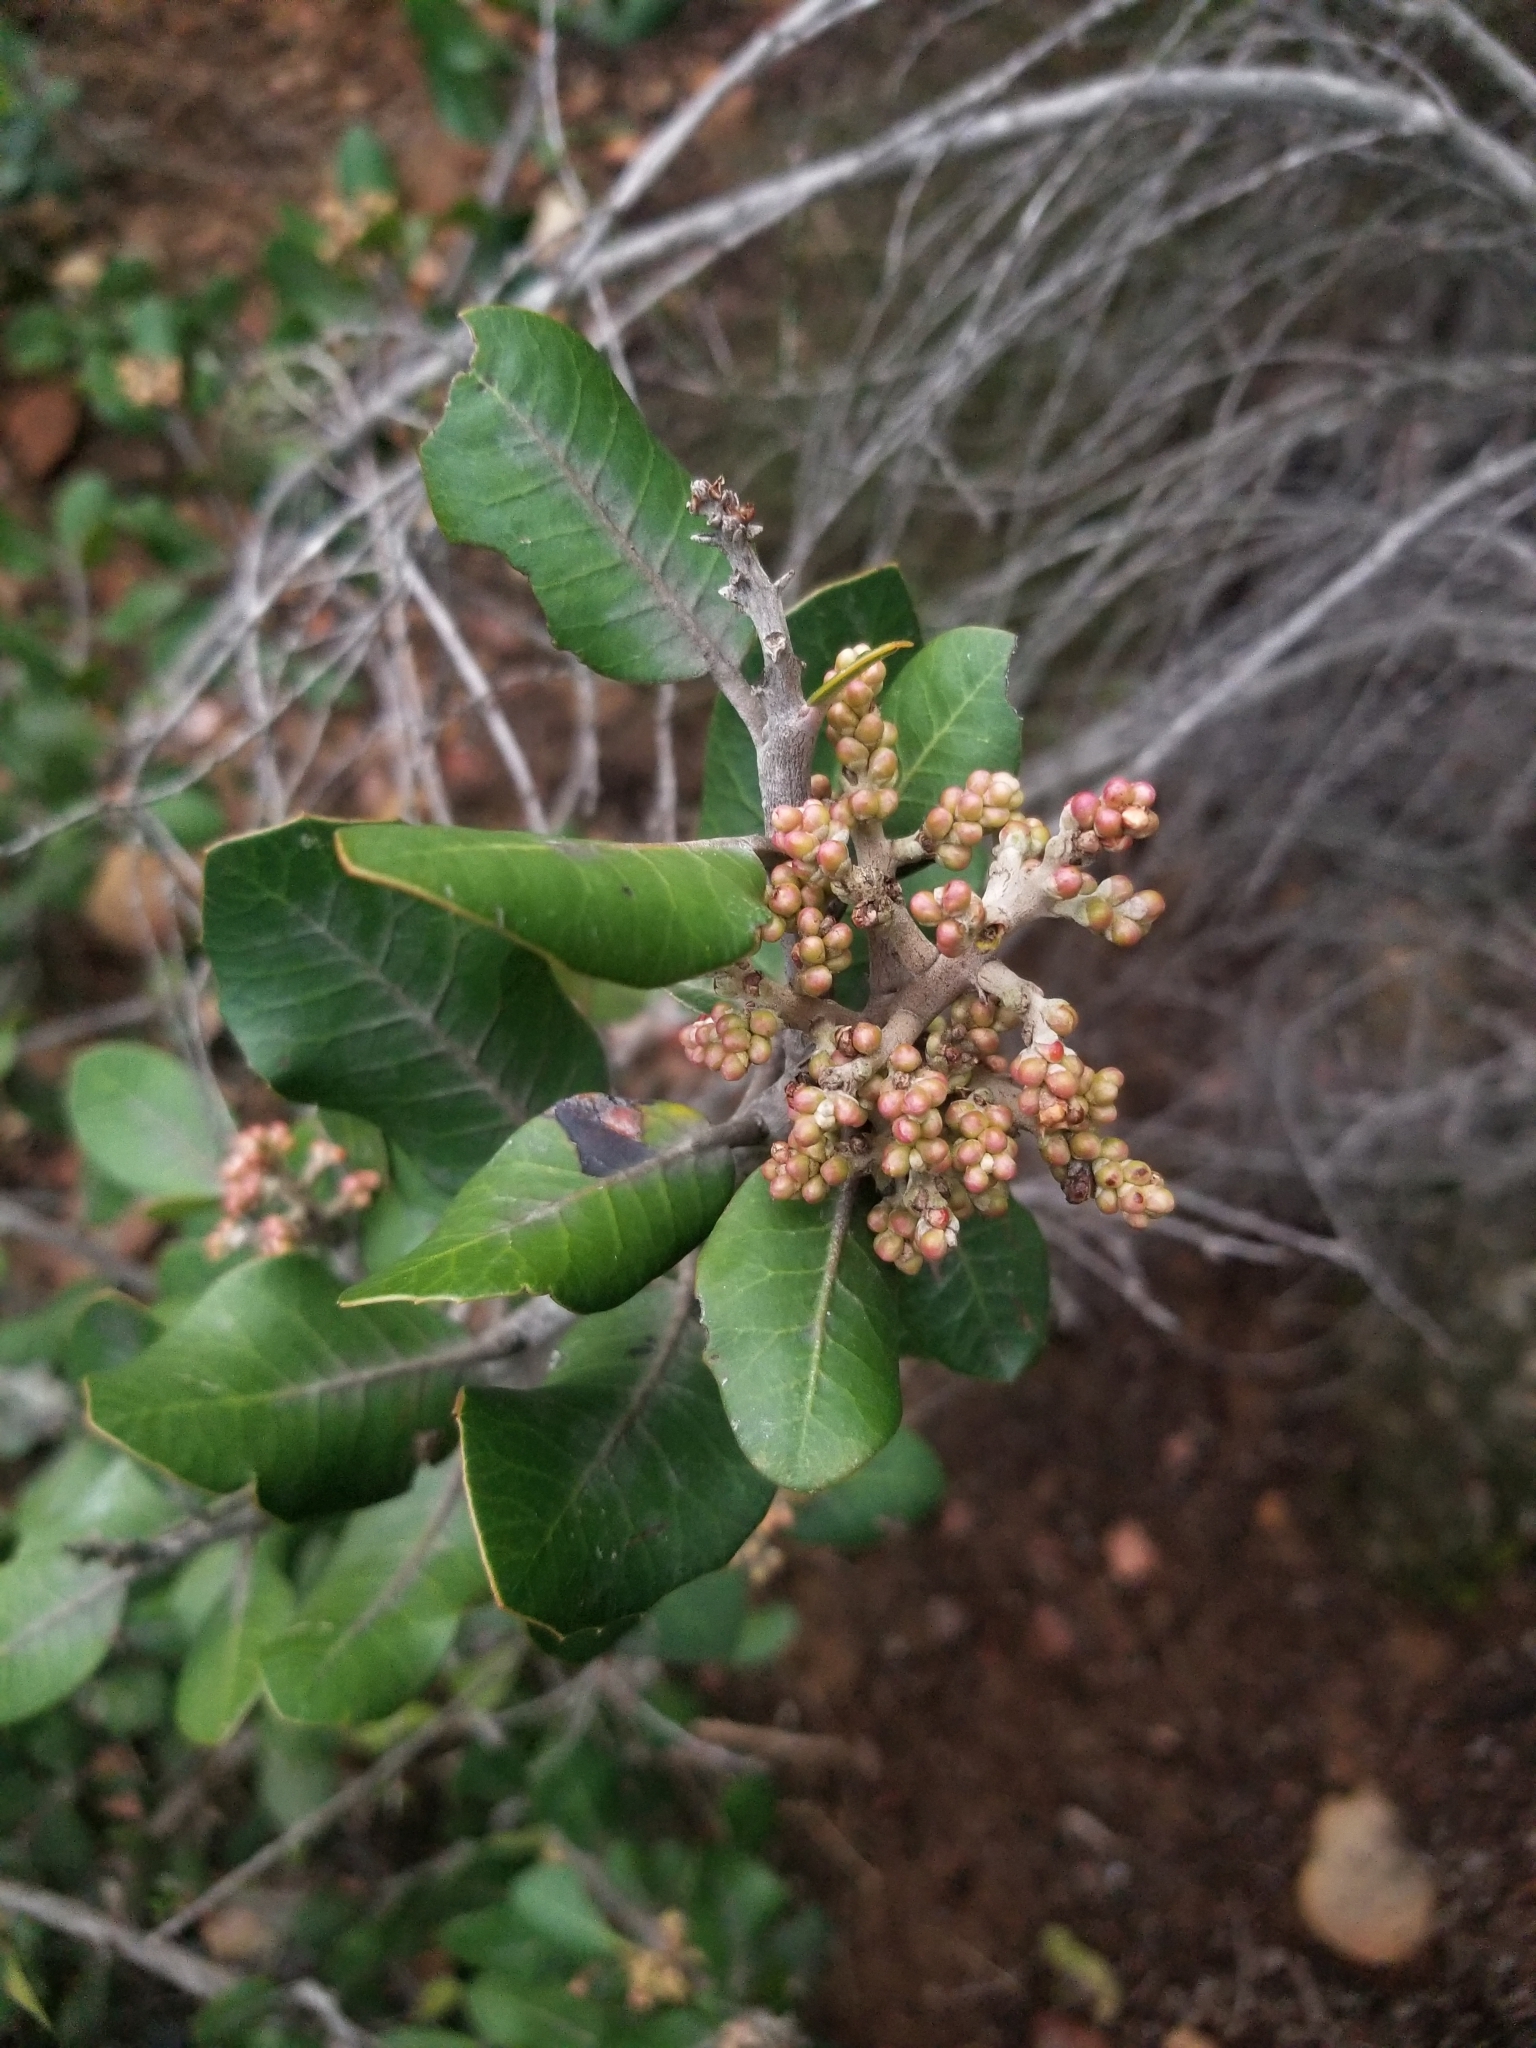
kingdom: Plantae
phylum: Tracheophyta
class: Magnoliopsida
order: Sapindales
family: Anacardiaceae
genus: Rhus
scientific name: Rhus integrifolia
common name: Lemonade sumac
